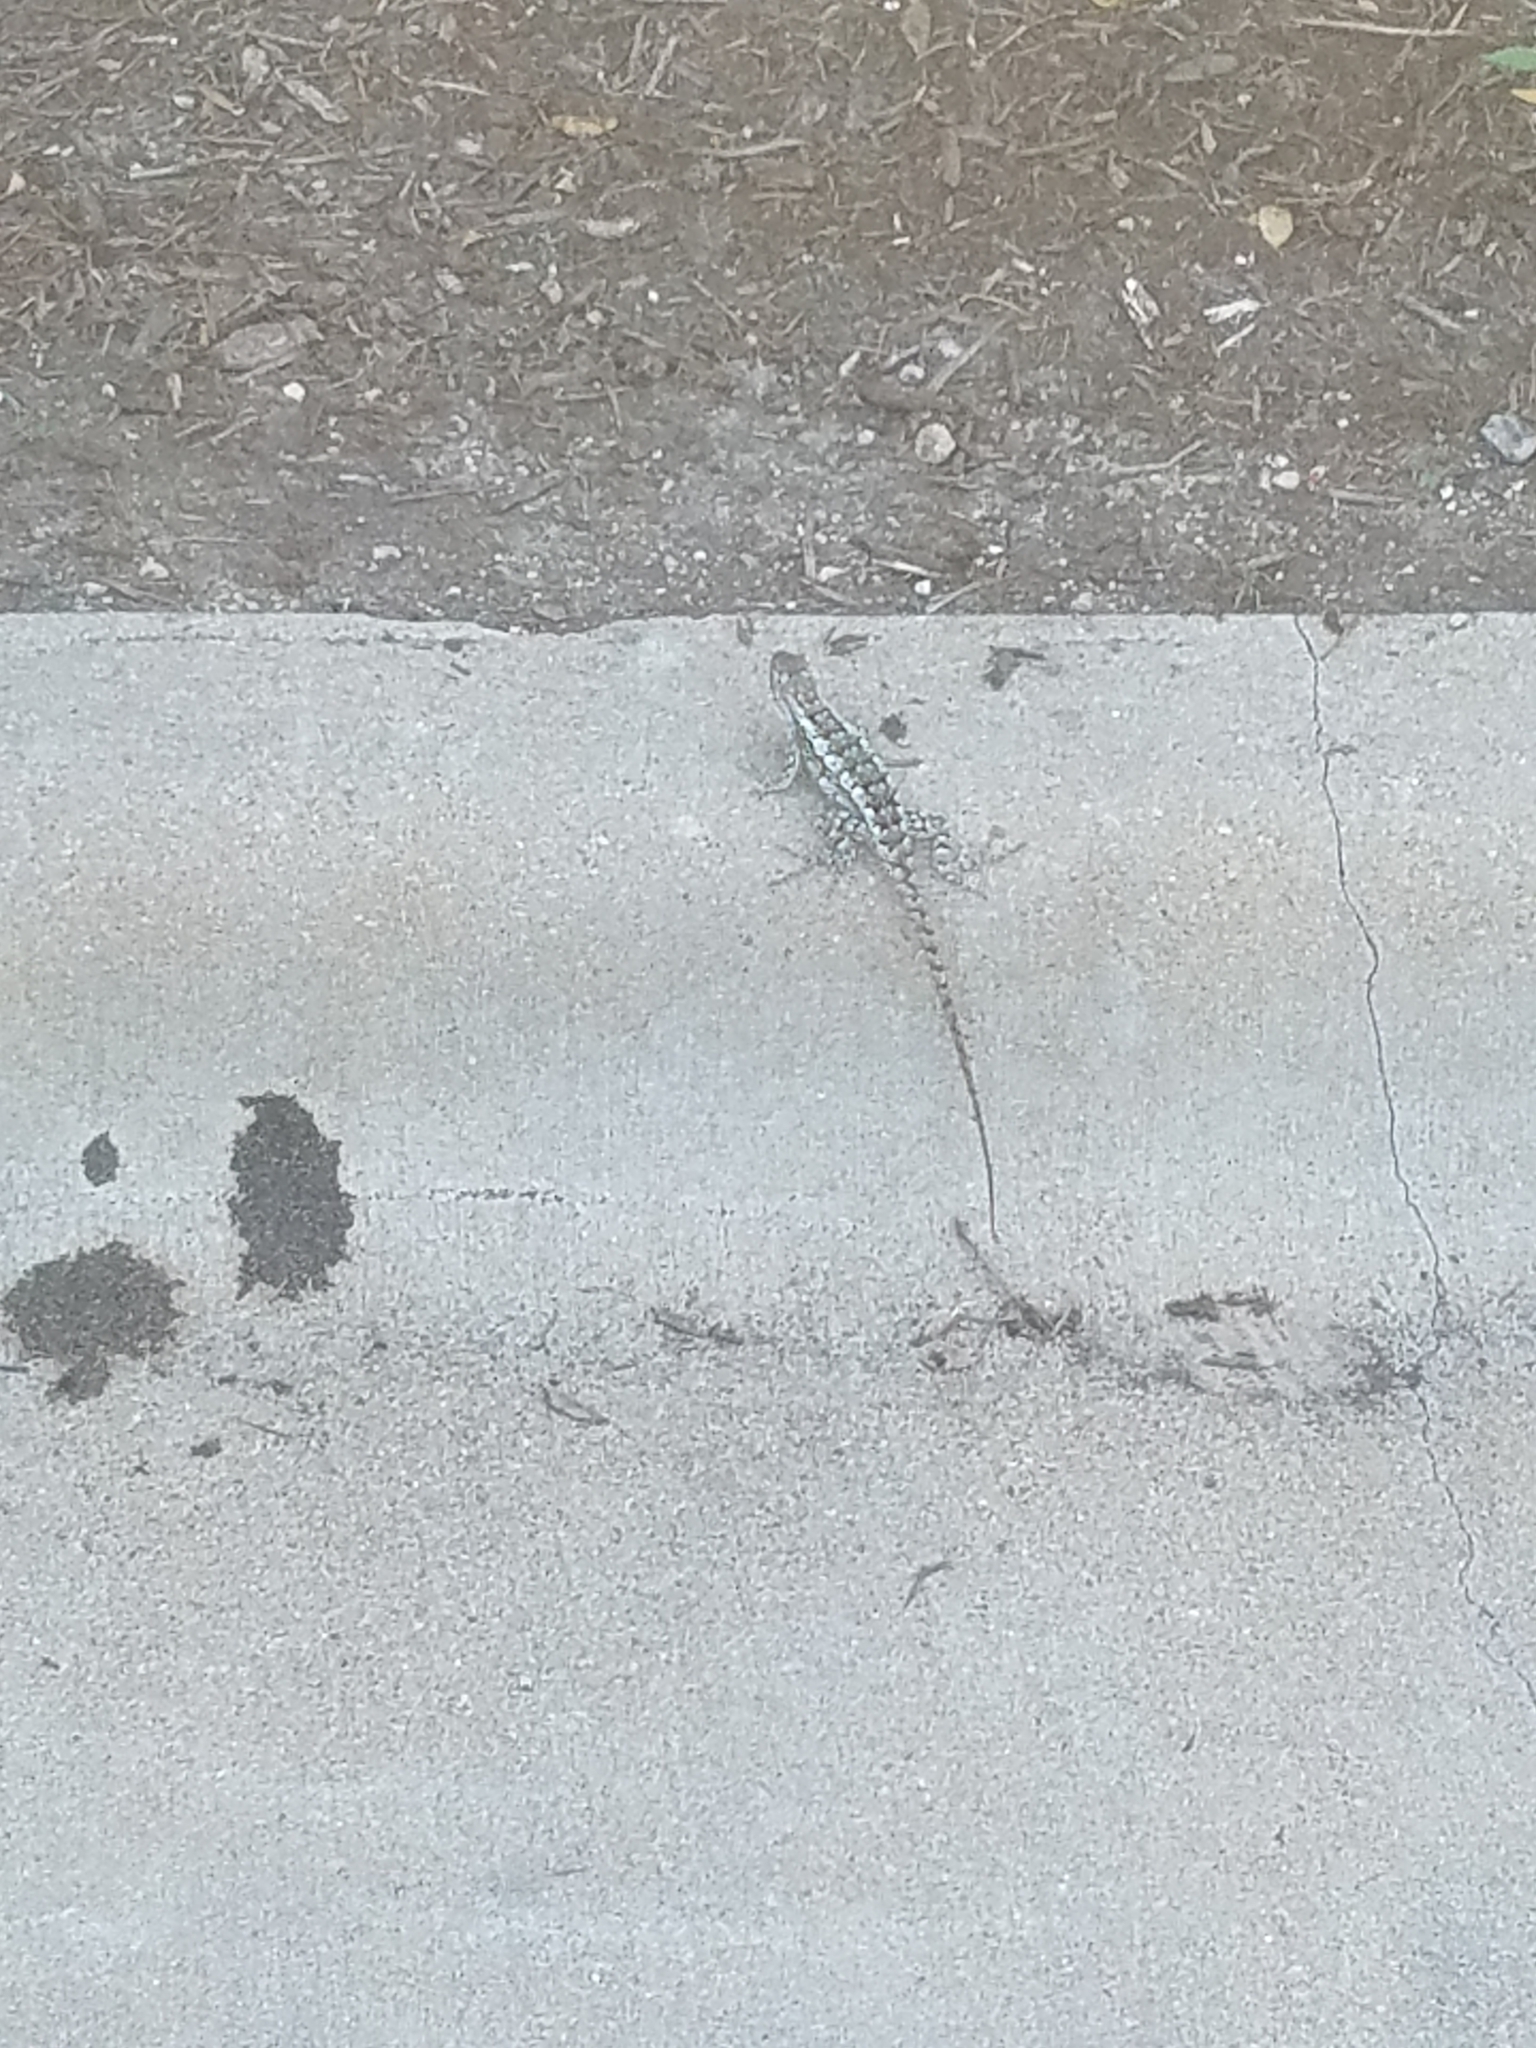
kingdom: Animalia
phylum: Chordata
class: Squamata
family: Phrynosomatidae
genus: Sceloporus
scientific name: Sceloporus olivaceus
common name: Texas spiny lizard
